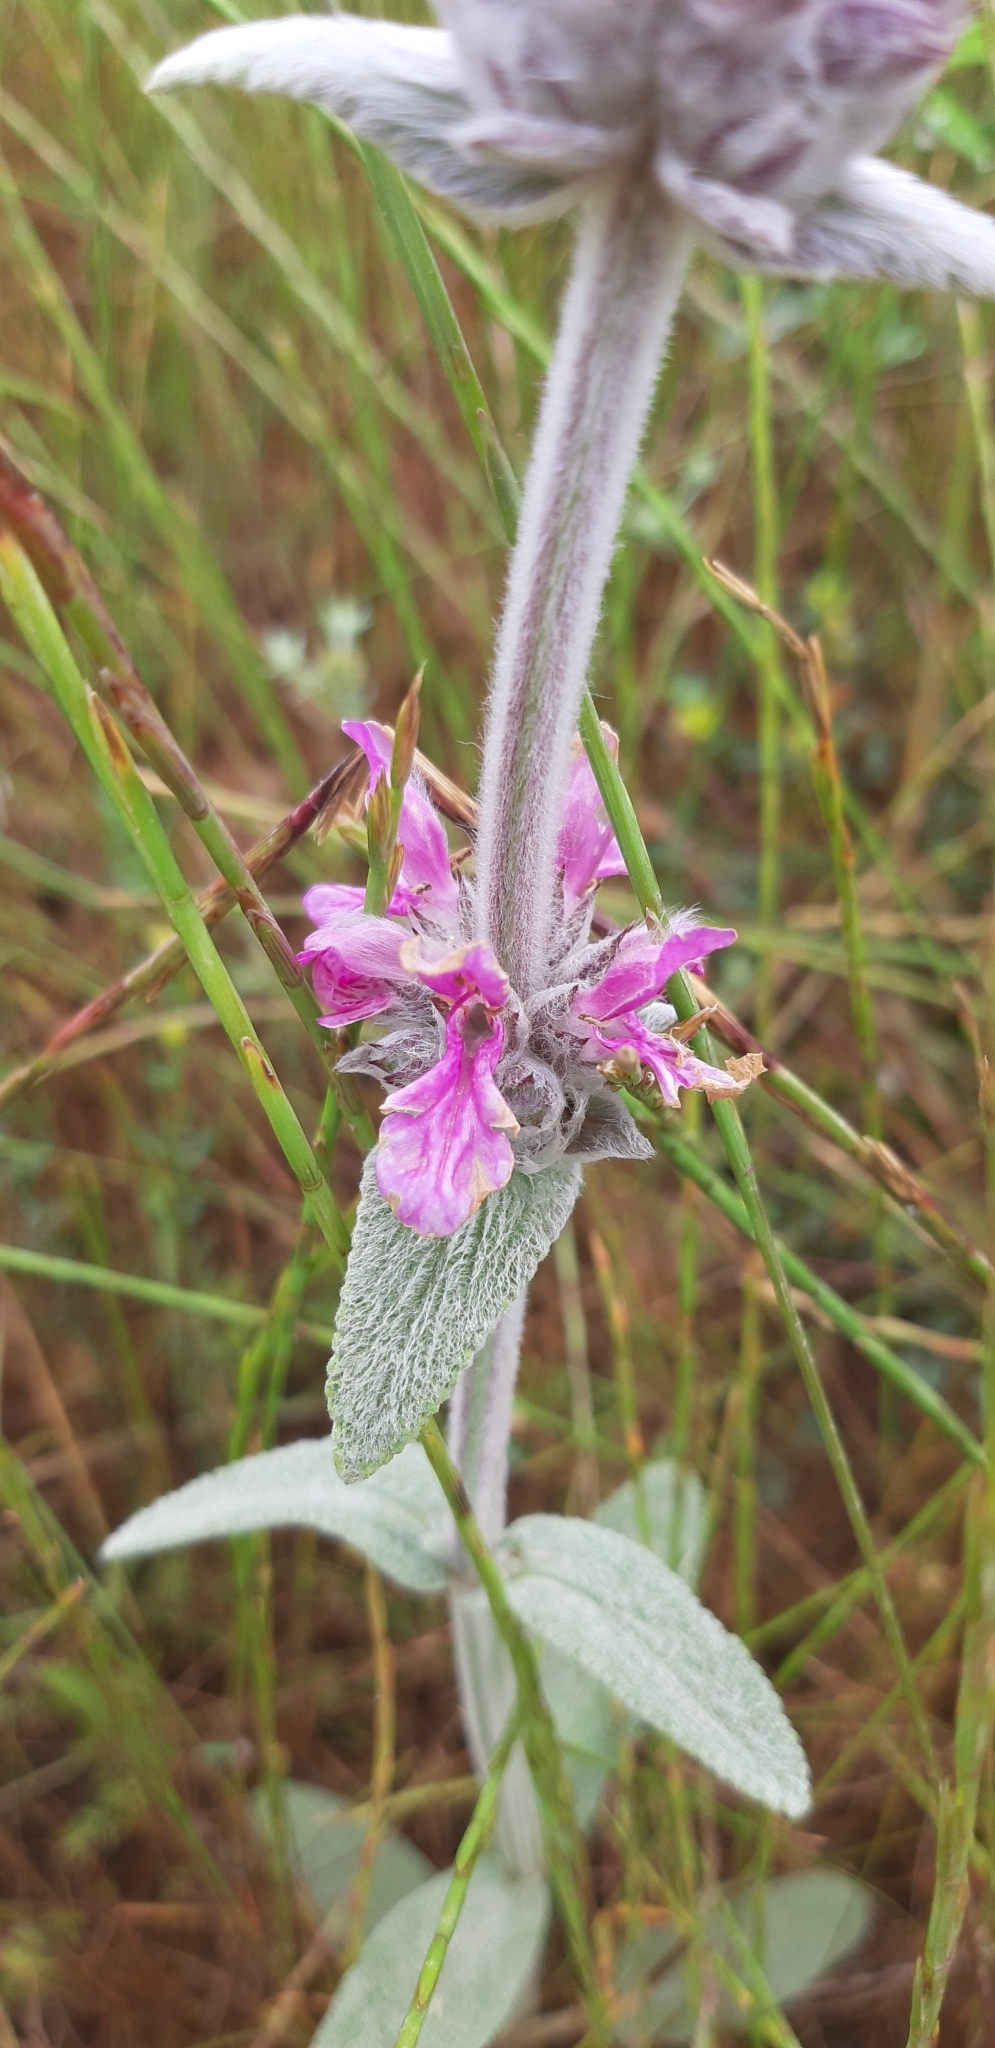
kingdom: Plantae
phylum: Tracheophyta
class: Magnoliopsida
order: Lamiales
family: Lamiaceae
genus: Stachys
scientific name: Stachys cretica
